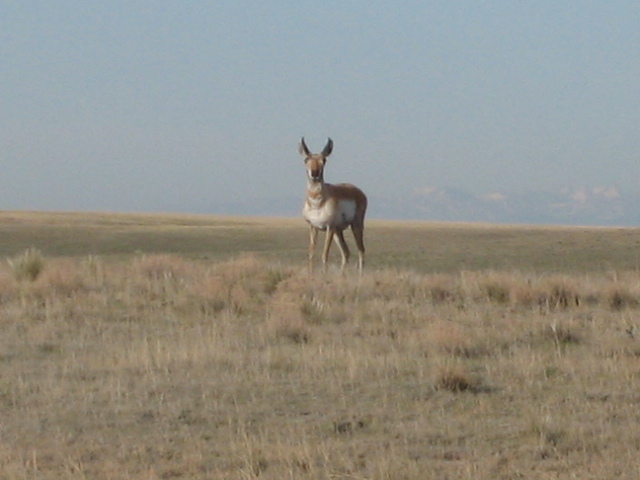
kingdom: Animalia
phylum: Chordata
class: Mammalia
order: Artiodactyla
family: Antilocapridae
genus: Antilocapra
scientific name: Antilocapra americana
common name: Pronghorn
